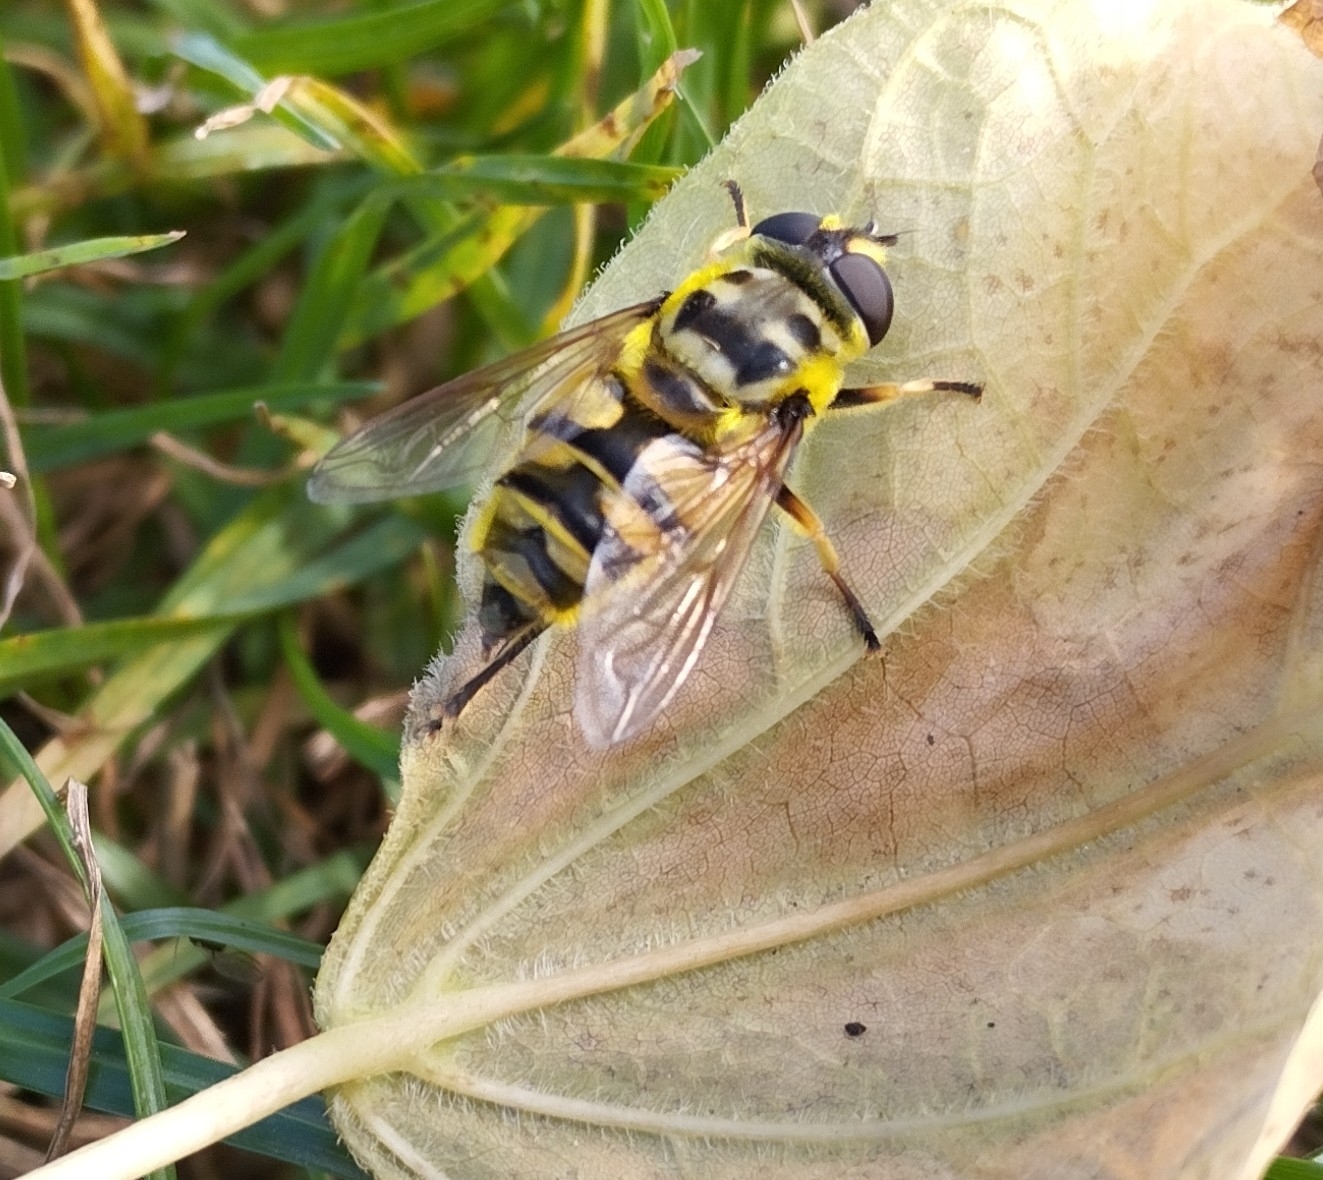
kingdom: Animalia
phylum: Arthropoda
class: Insecta
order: Diptera
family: Syrphidae
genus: Myathropa
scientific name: Myathropa florea
